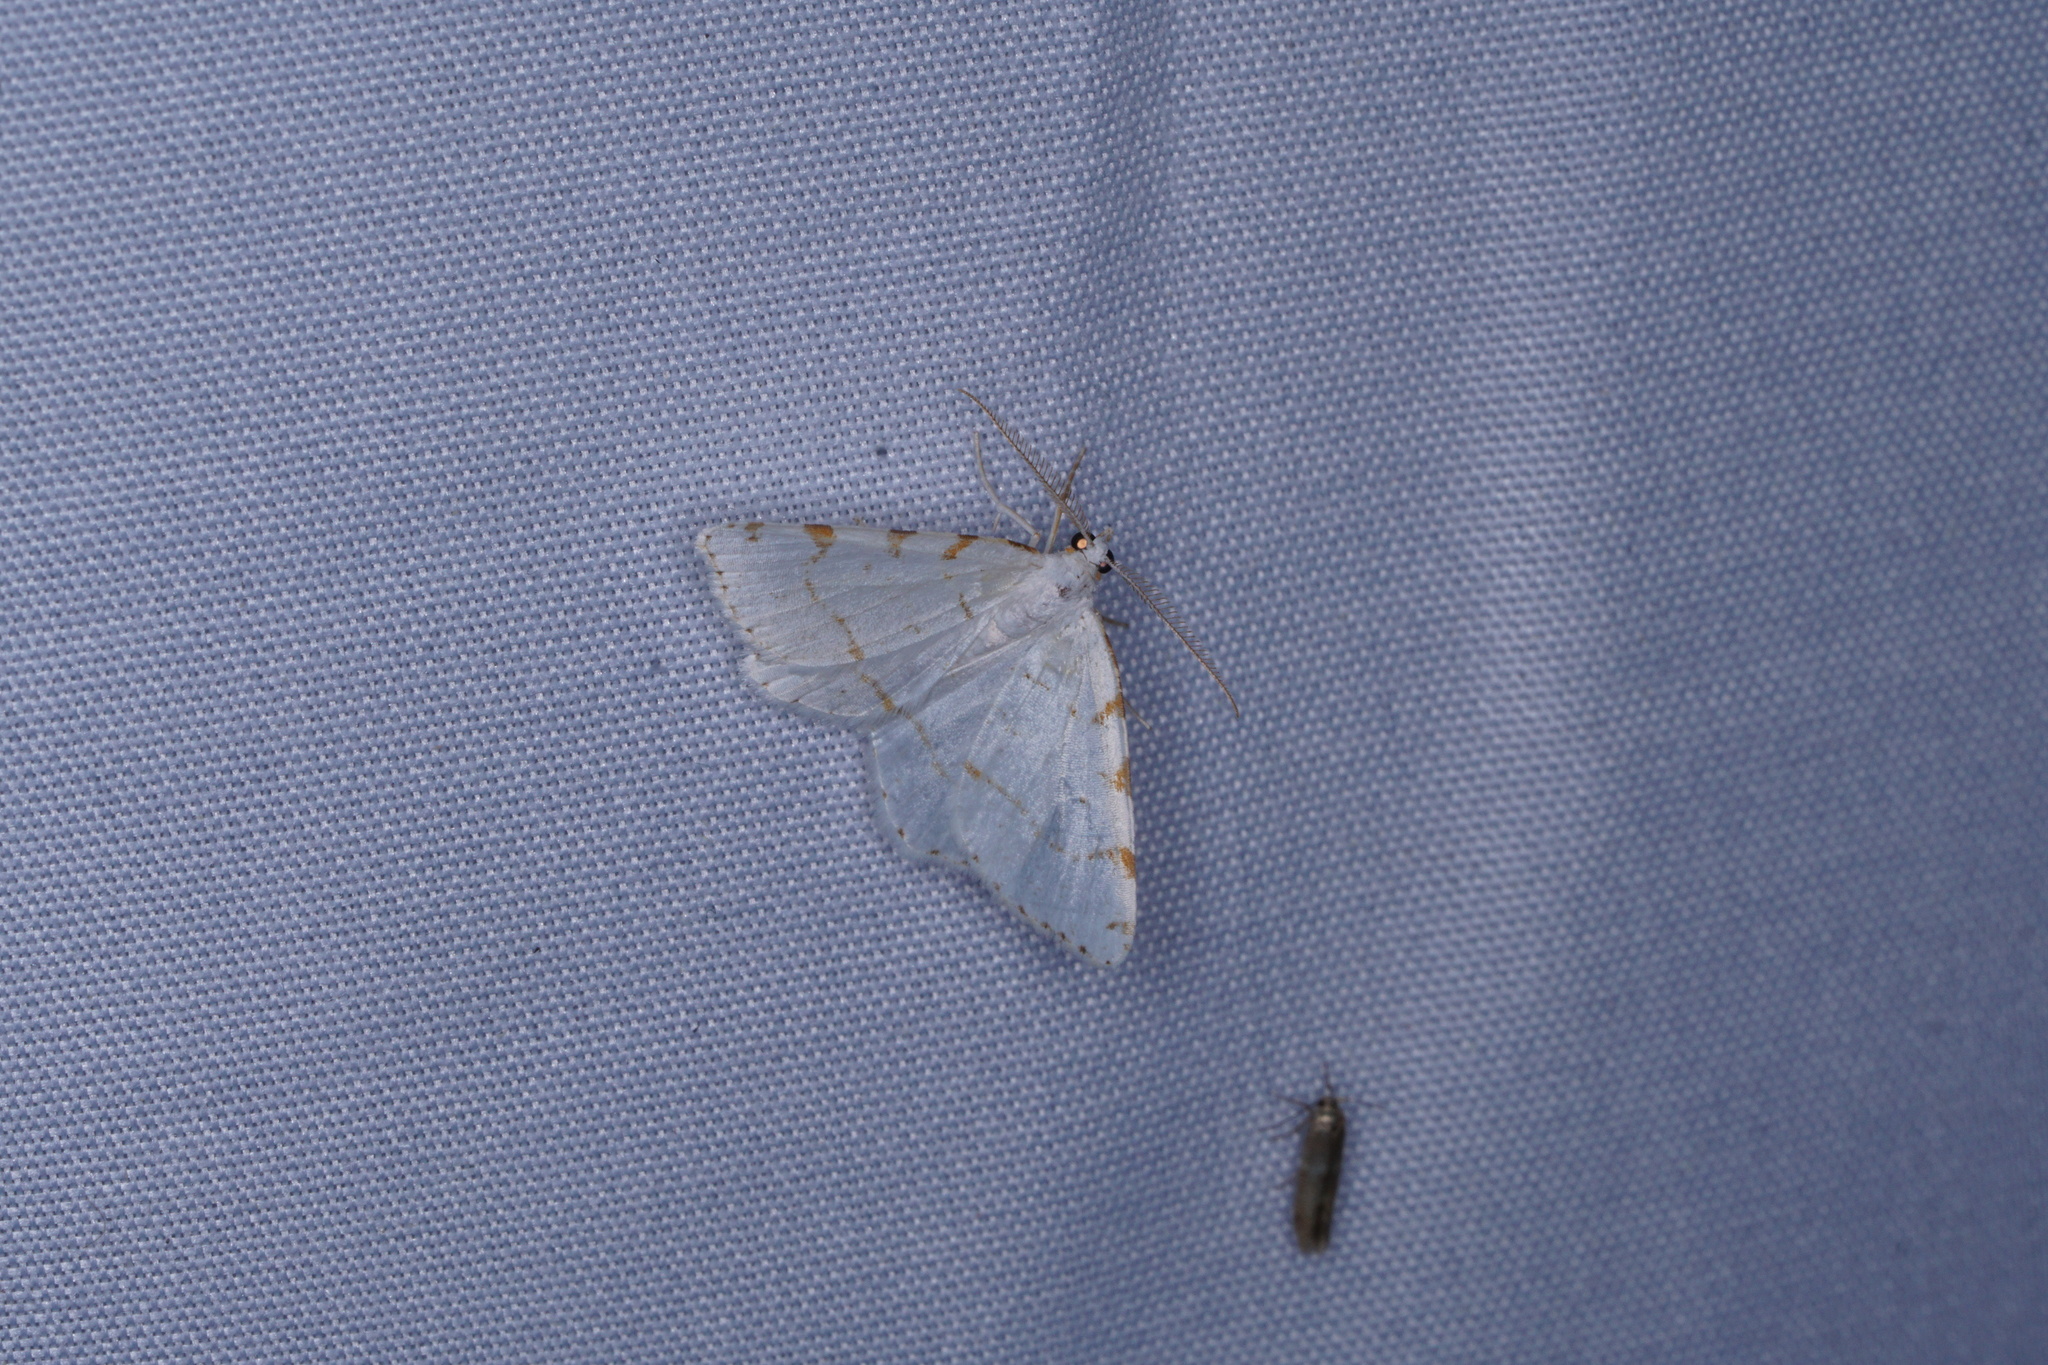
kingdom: Animalia
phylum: Arthropoda
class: Insecta
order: Lepidoptera
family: Geometridae
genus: Macaria
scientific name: Macaria pustularia
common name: Lesser maple spanworm moth
